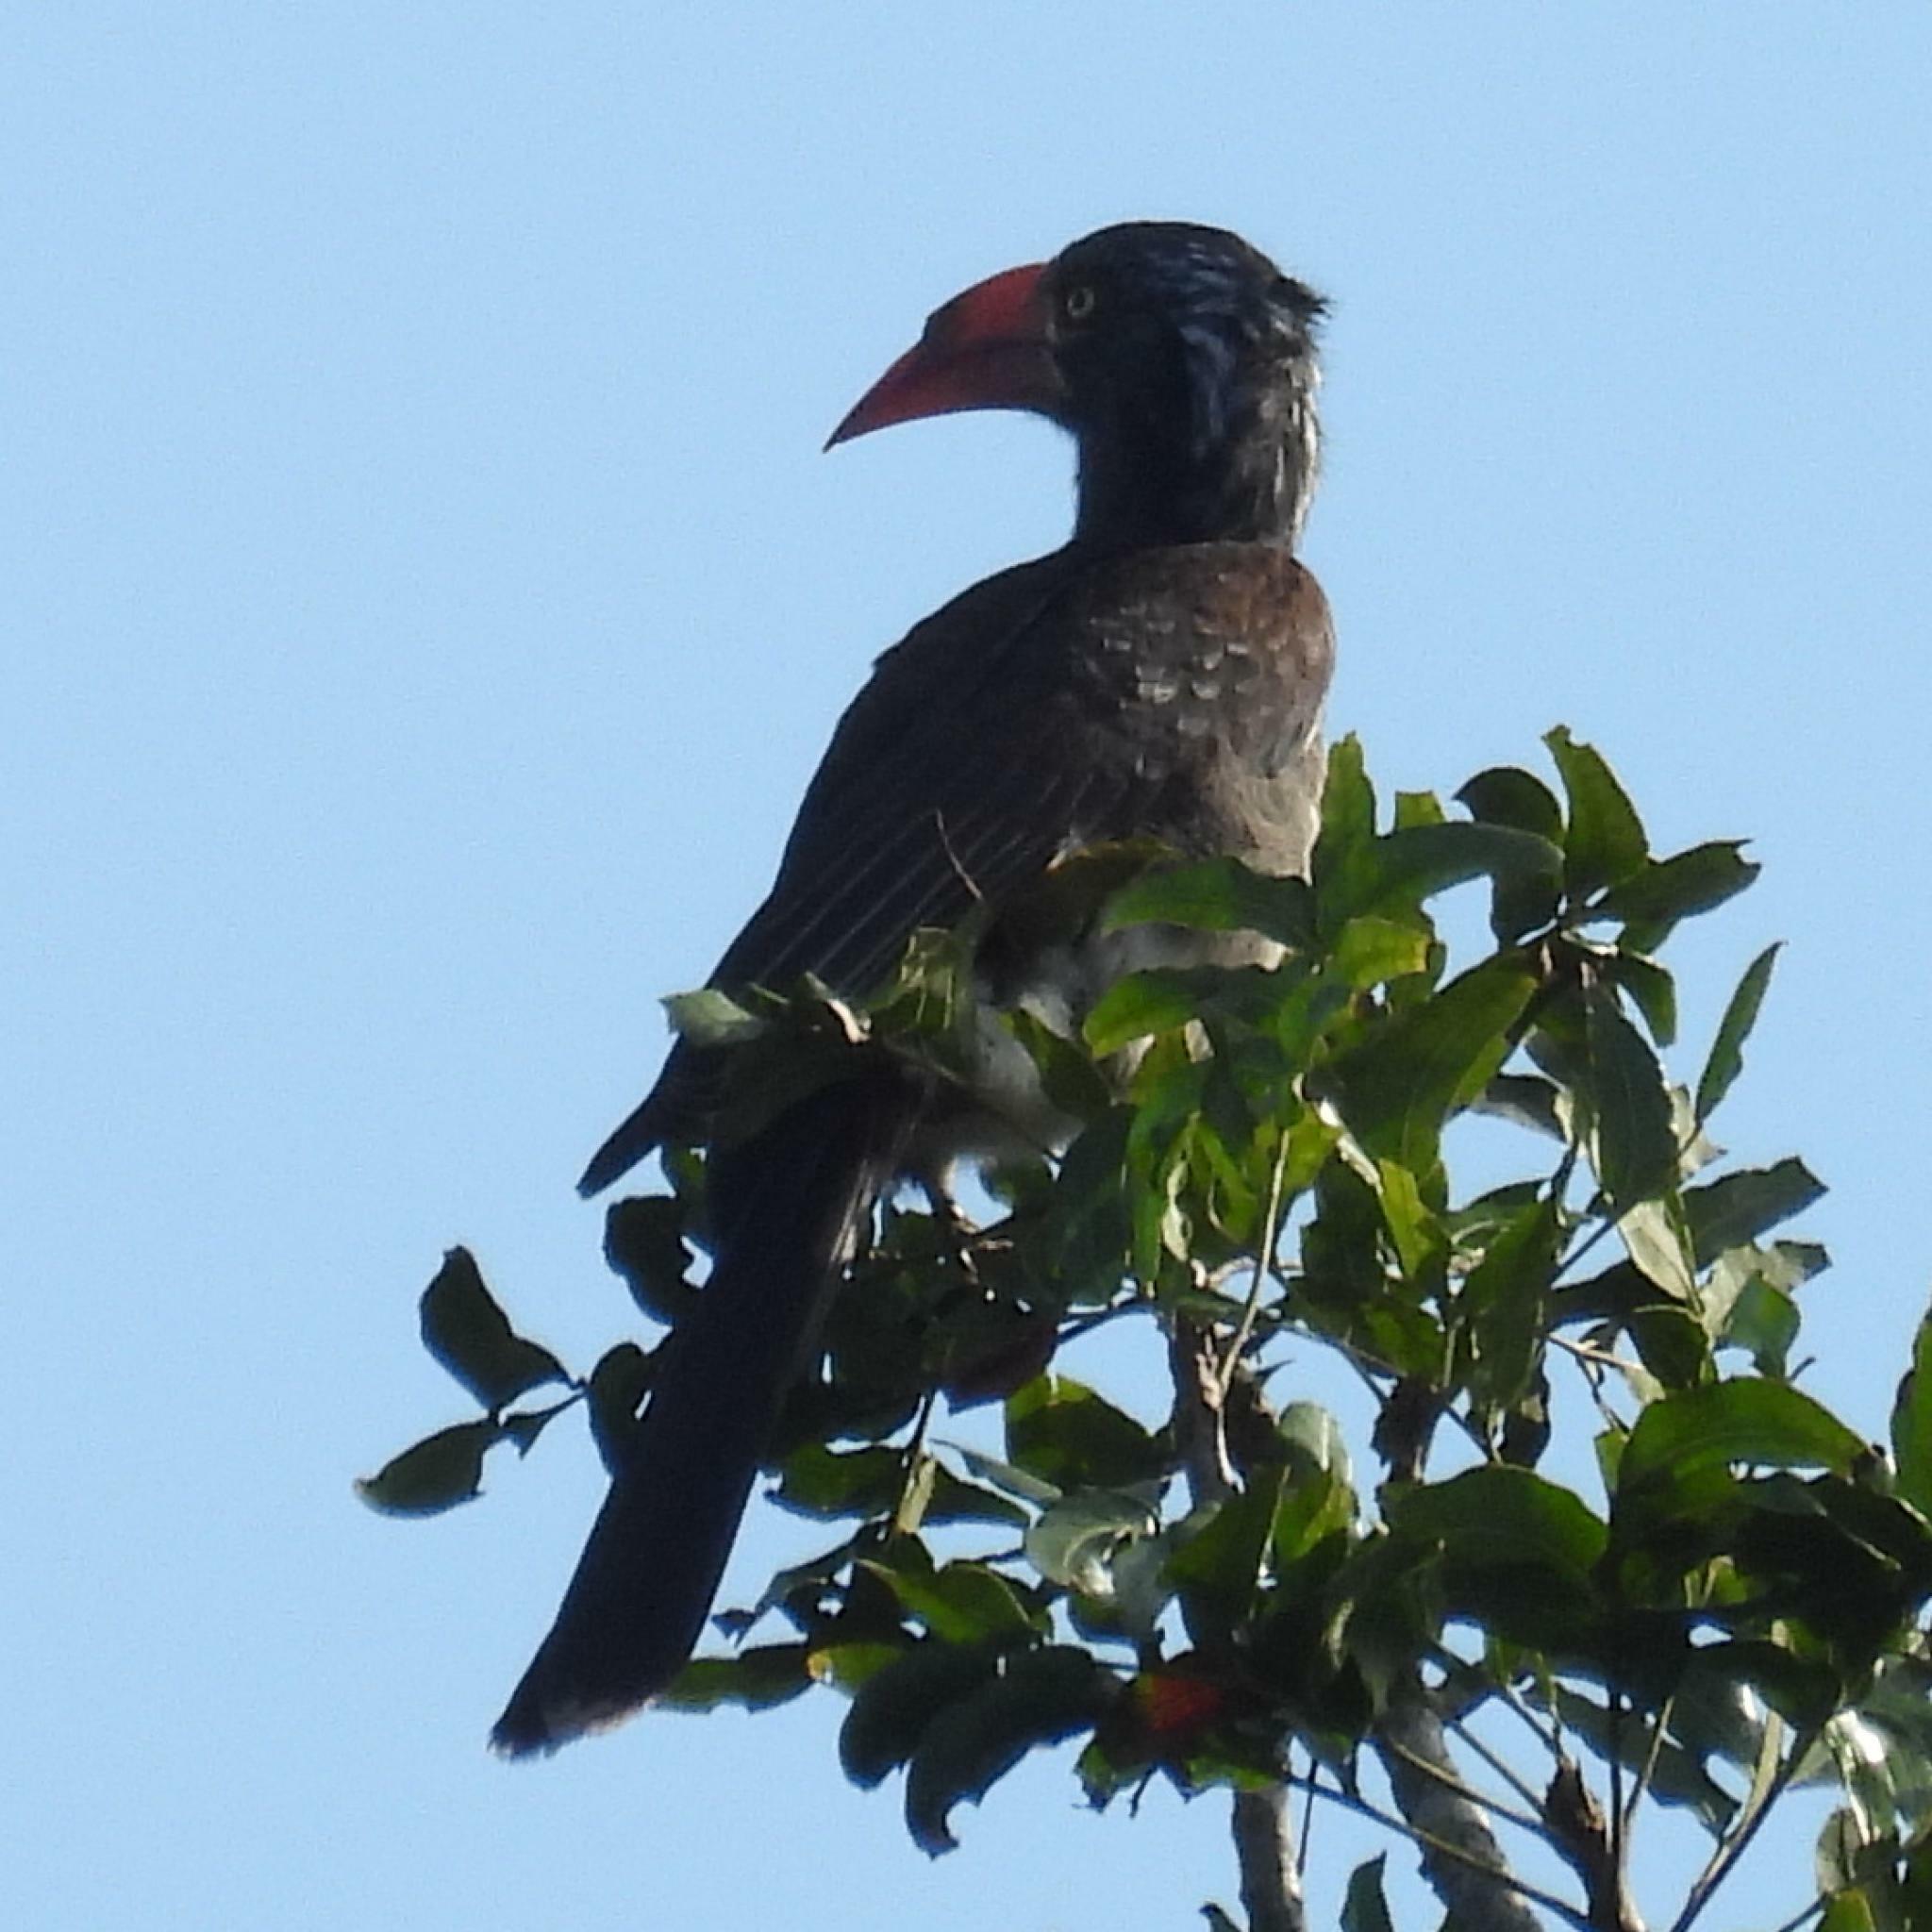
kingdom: Animalia
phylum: Chordata
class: Aves
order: Bucerotiformes
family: Bucerotidae
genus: Lophoceros
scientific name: Lophoceros alboterminatus
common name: Crowned hornbill
